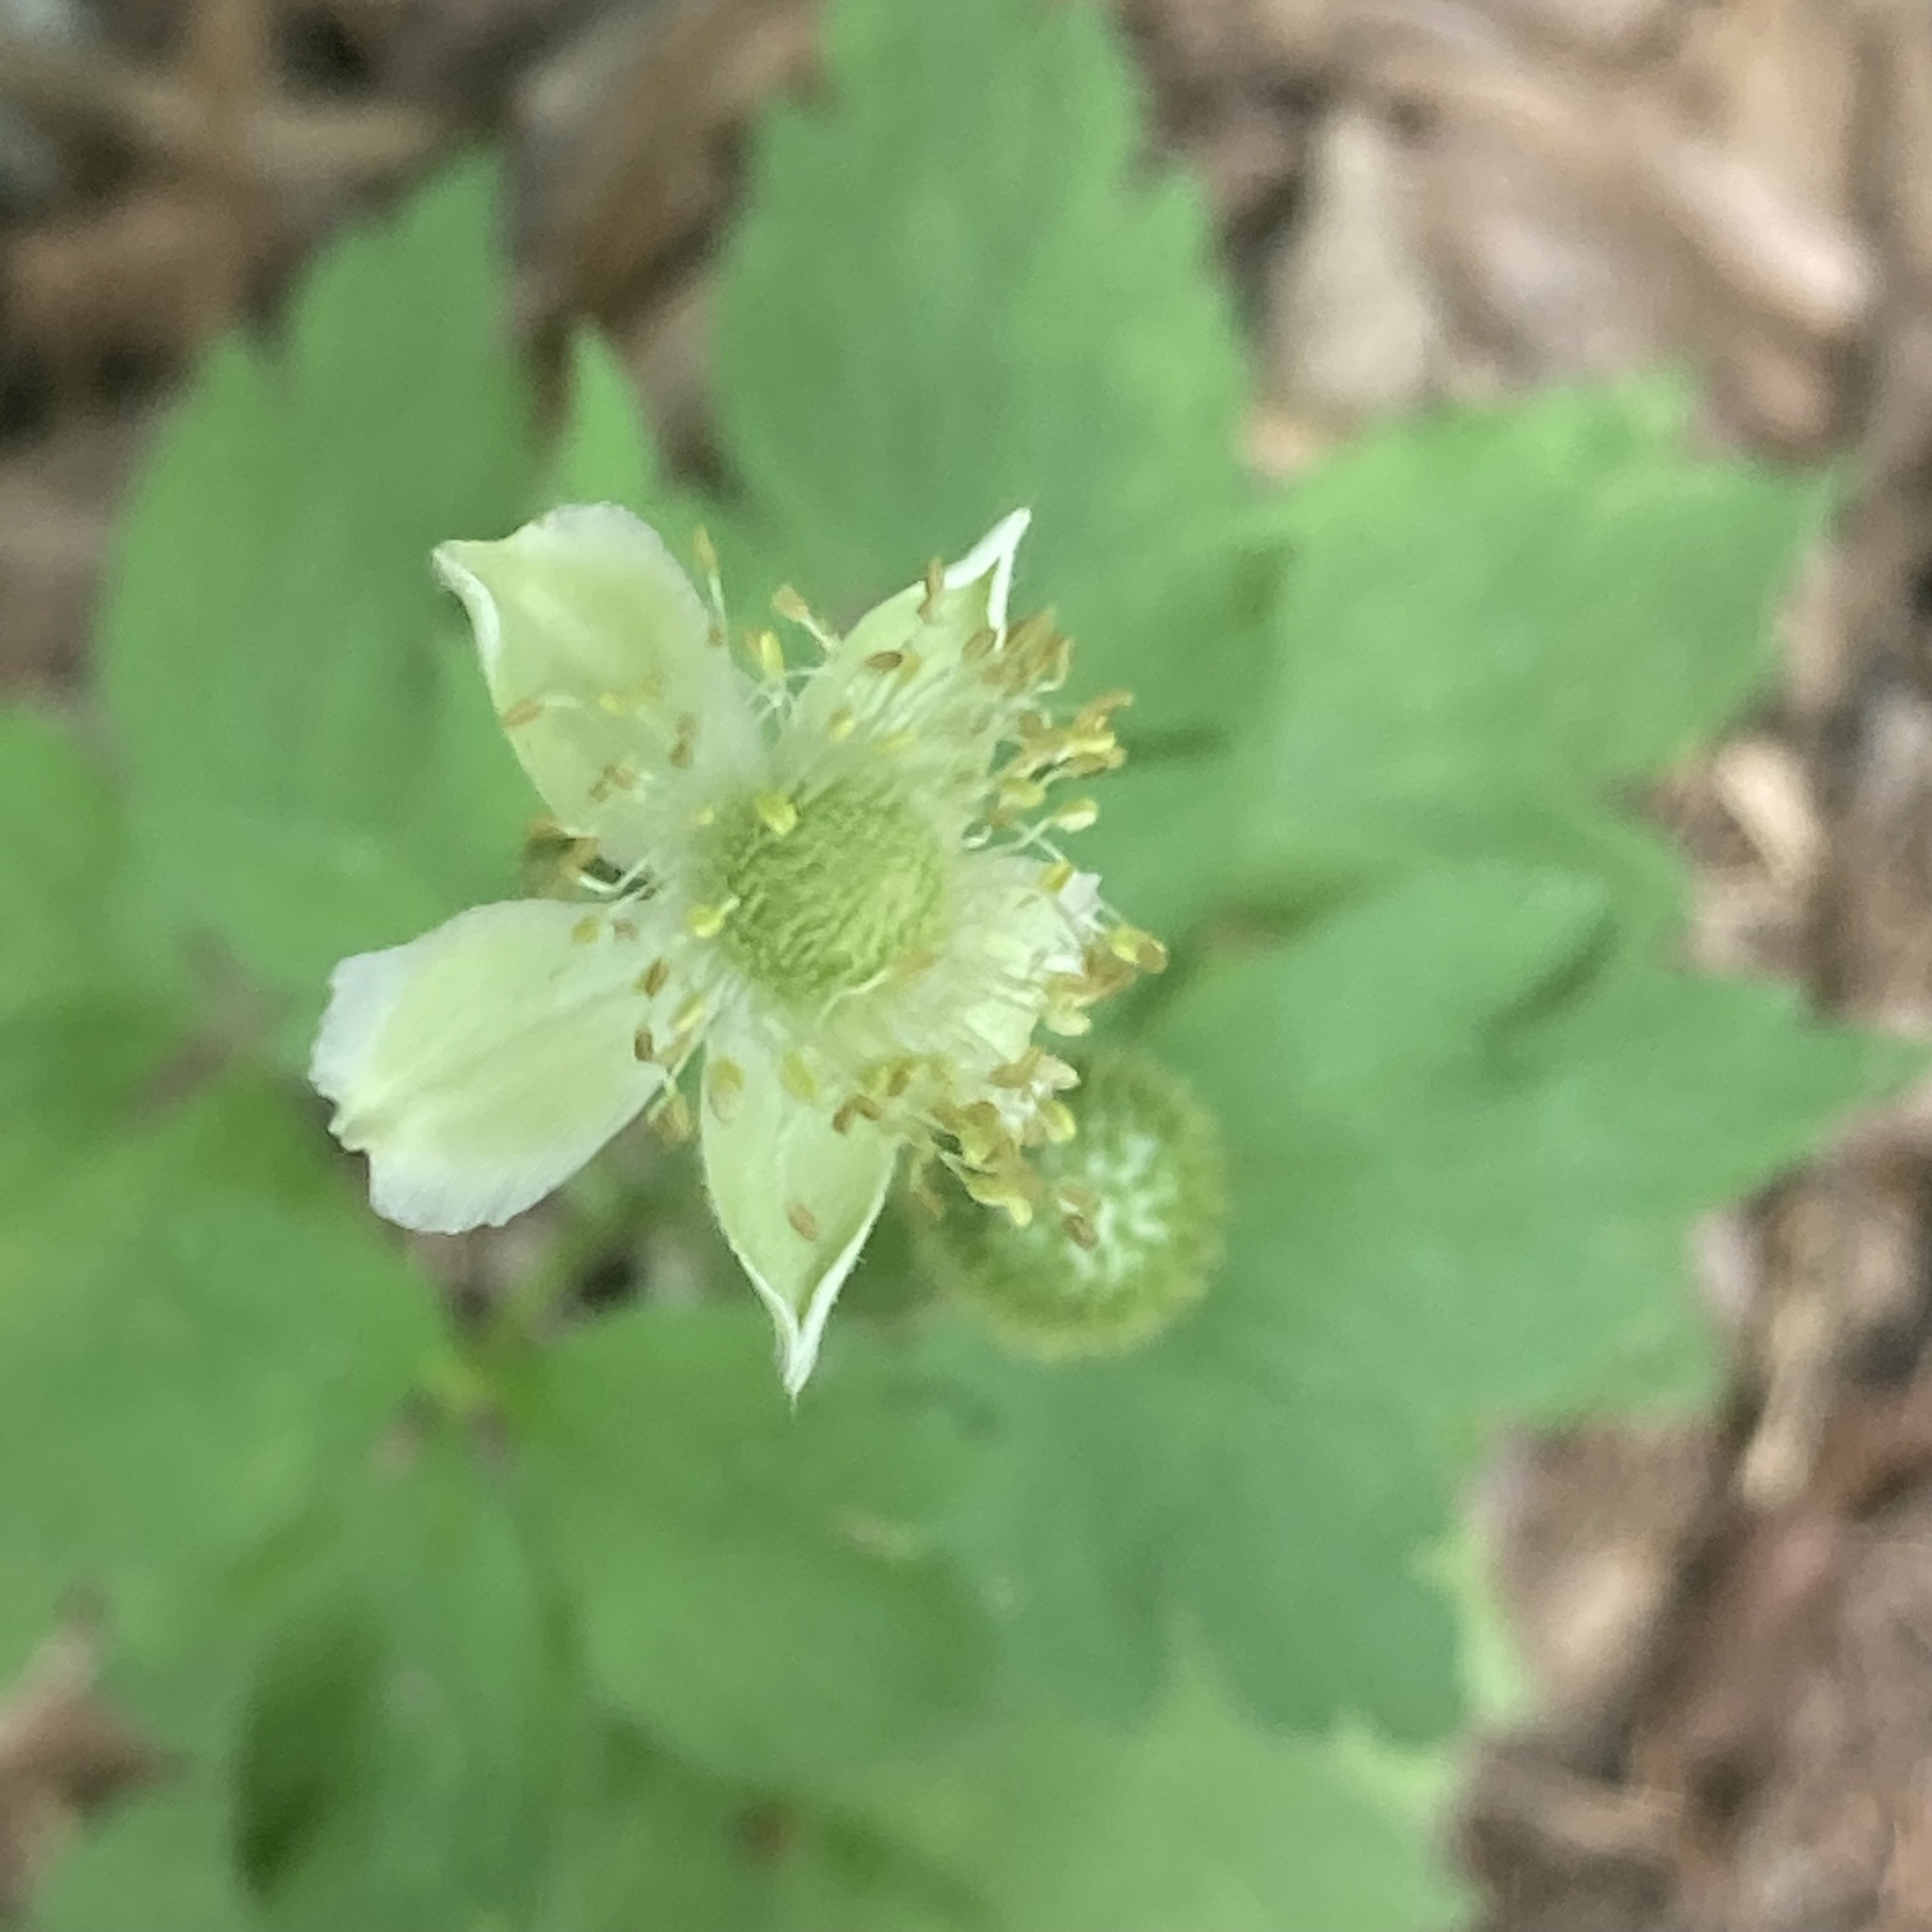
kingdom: Plantae
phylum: Tracheophyta
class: Magnoliopsida
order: Ranunculales
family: Ranunculaceae
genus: Anemone
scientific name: Anemone virginiana
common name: Tall anemone
